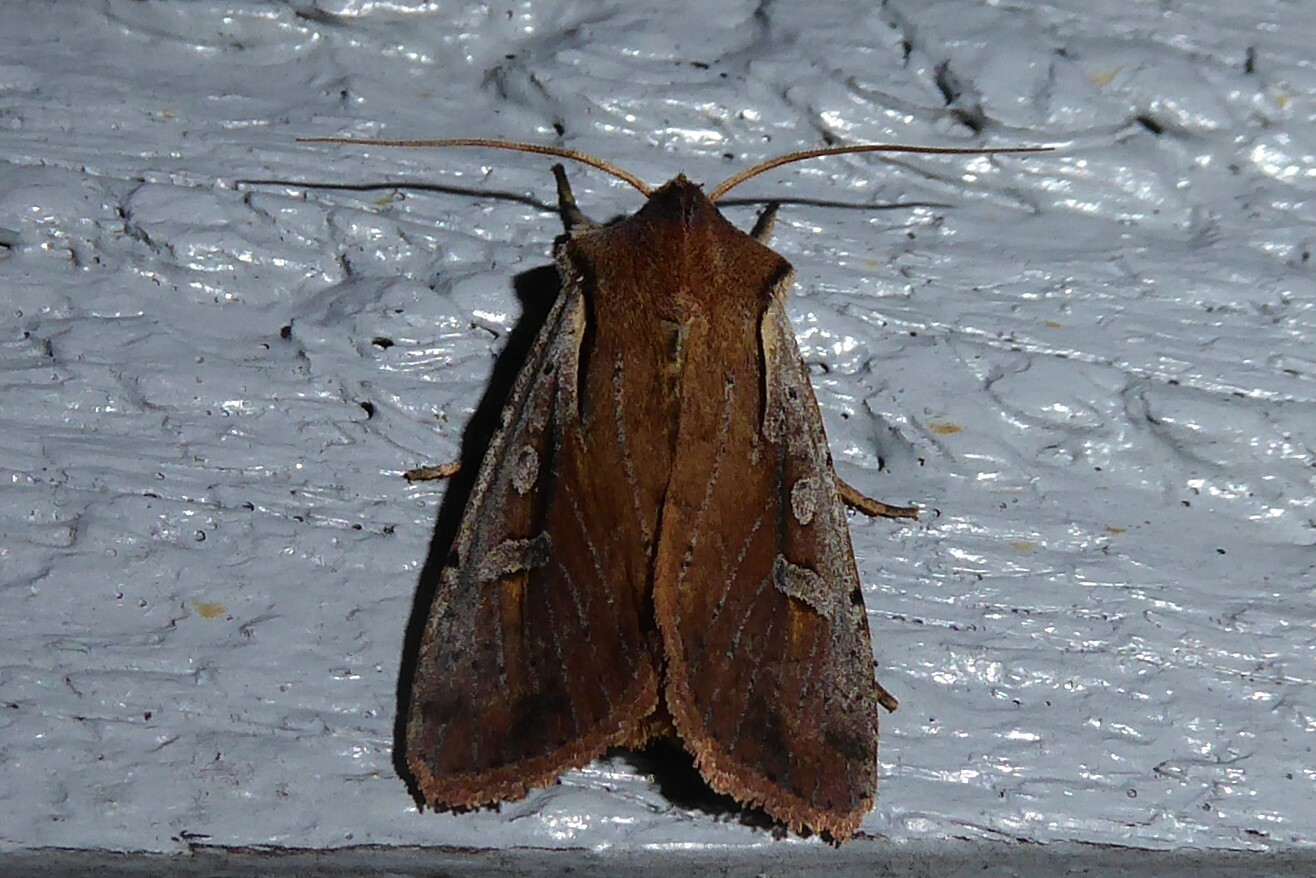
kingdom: Animalia
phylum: Arthropoda
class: Insecta
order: Lepidoptera
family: Noctuidae
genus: Ichneutica
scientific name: Ichneutica atristriga
